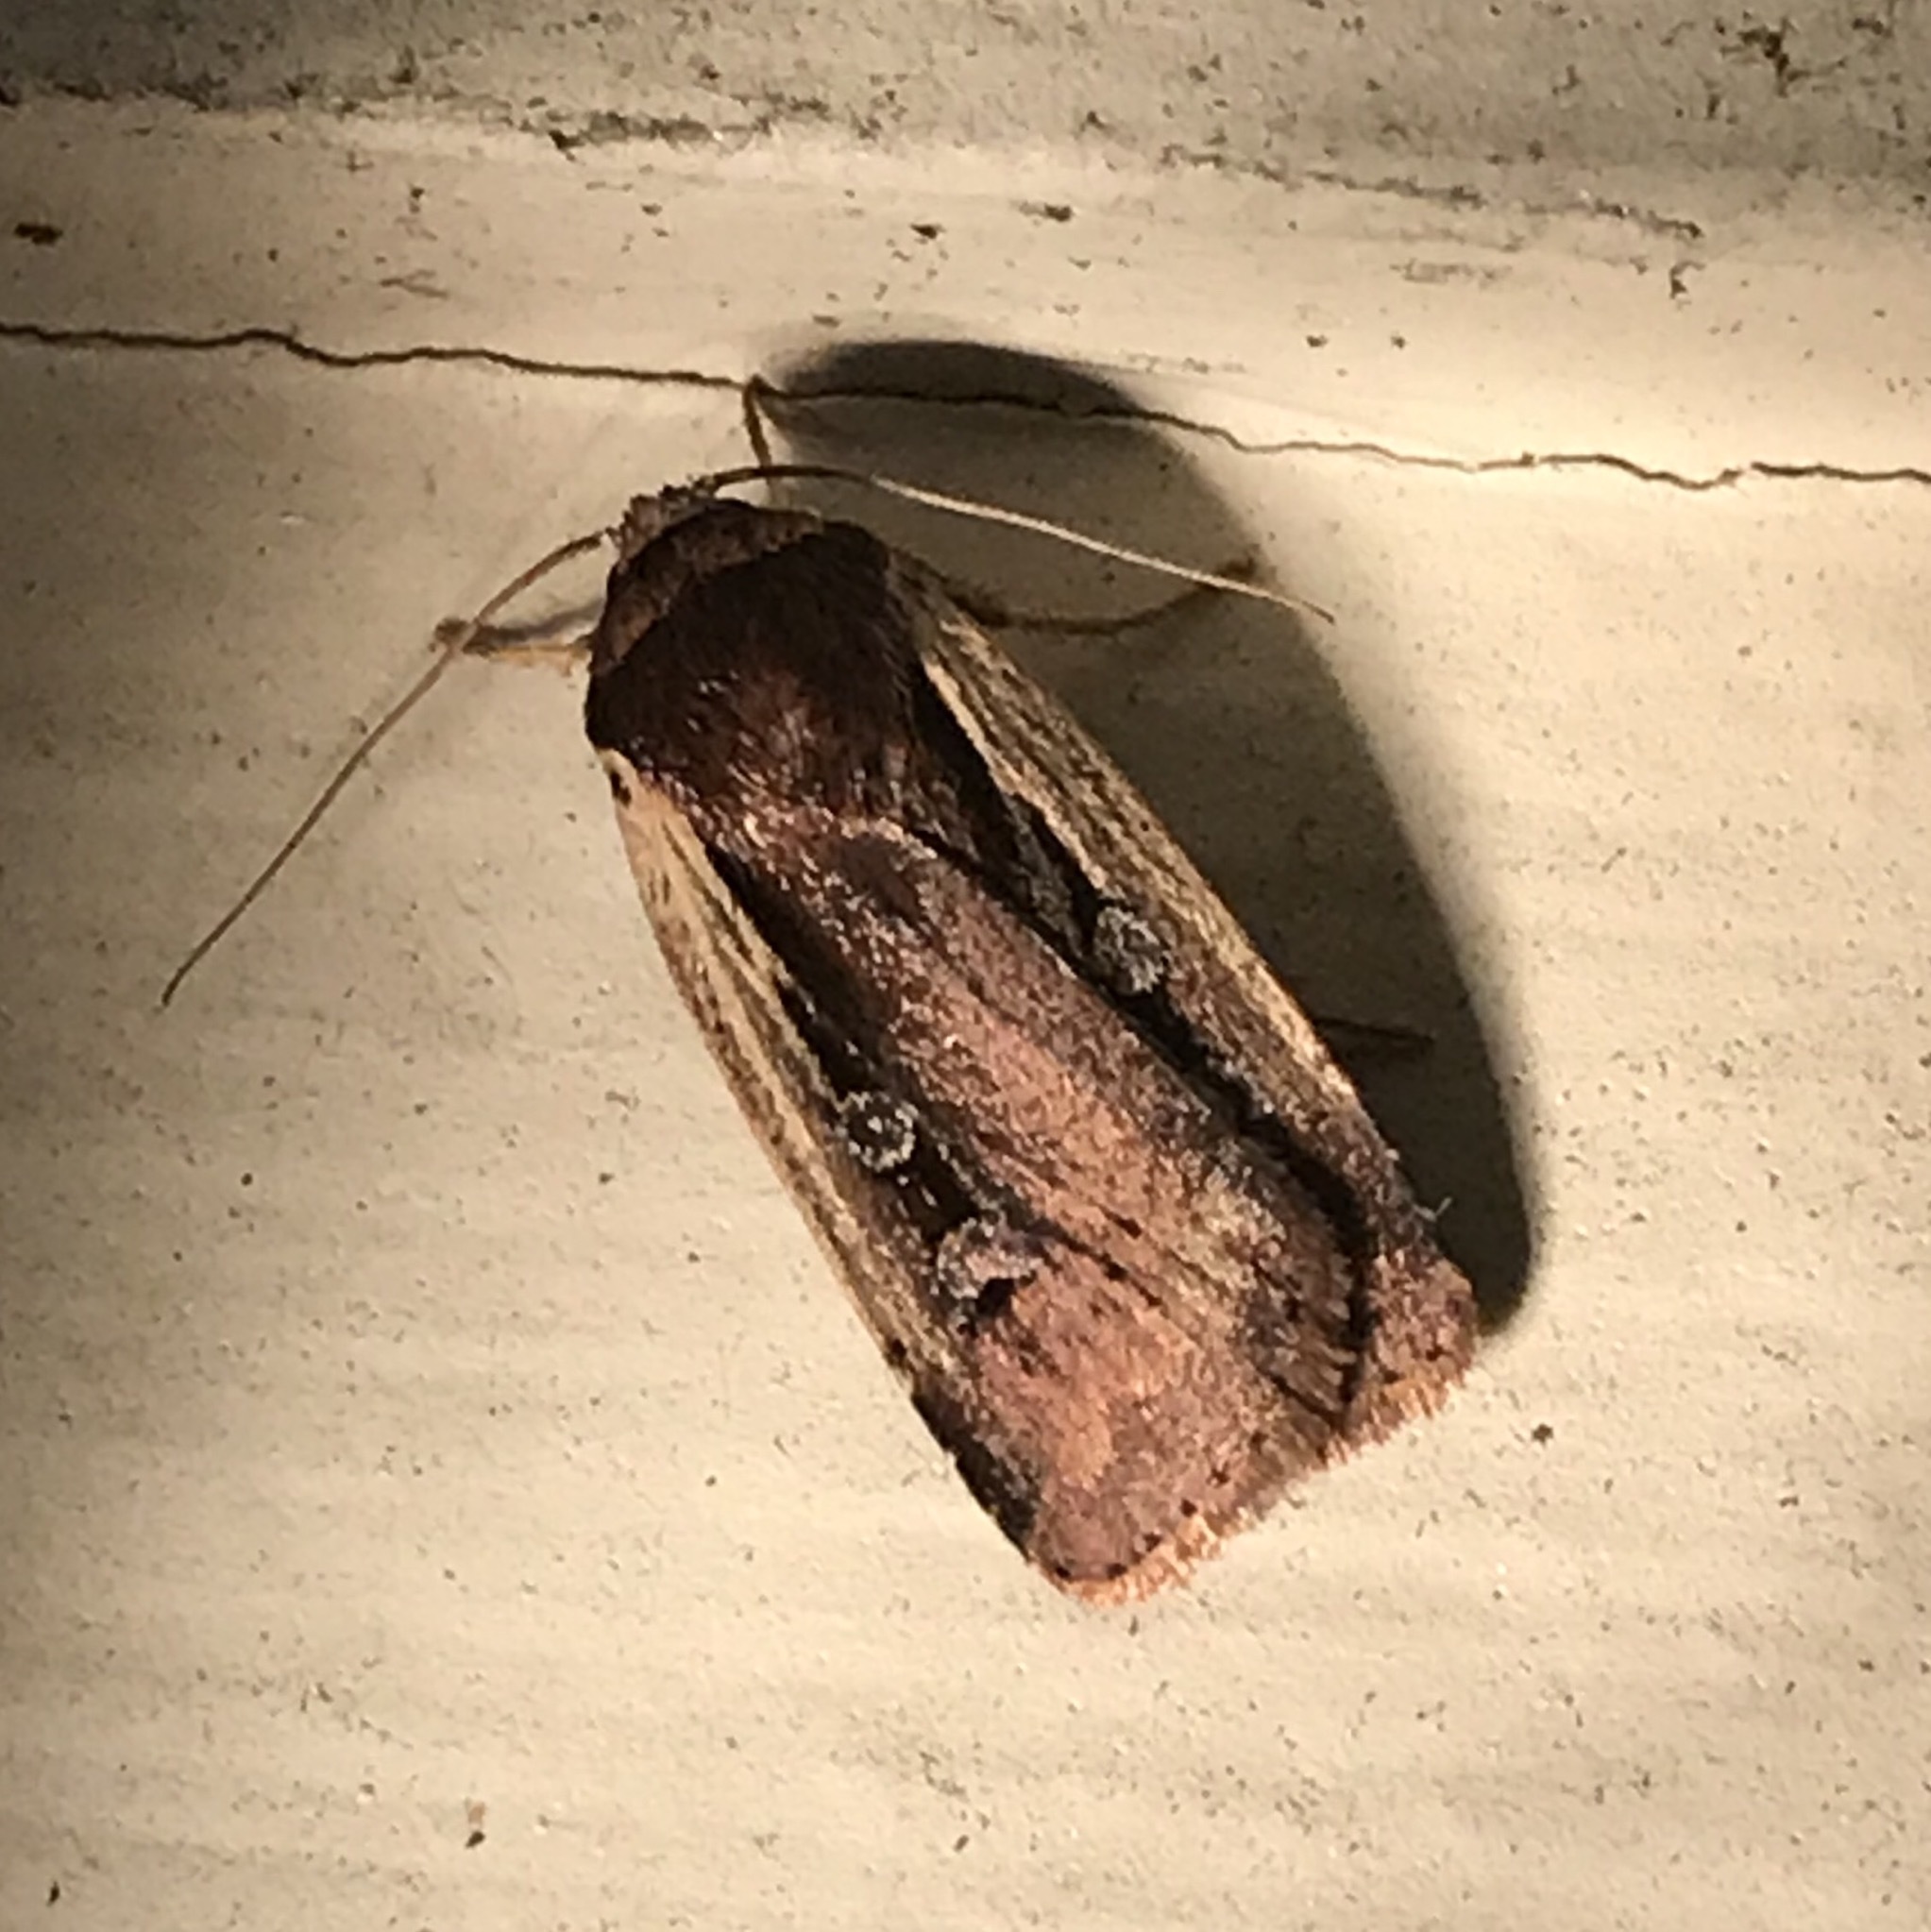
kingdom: Animalia
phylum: Arthropoda
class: Insecta
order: Lepidoptera
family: Noctuidae
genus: Ochropleura
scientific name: Ochropleura implecta
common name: Flame-shouldered dart
